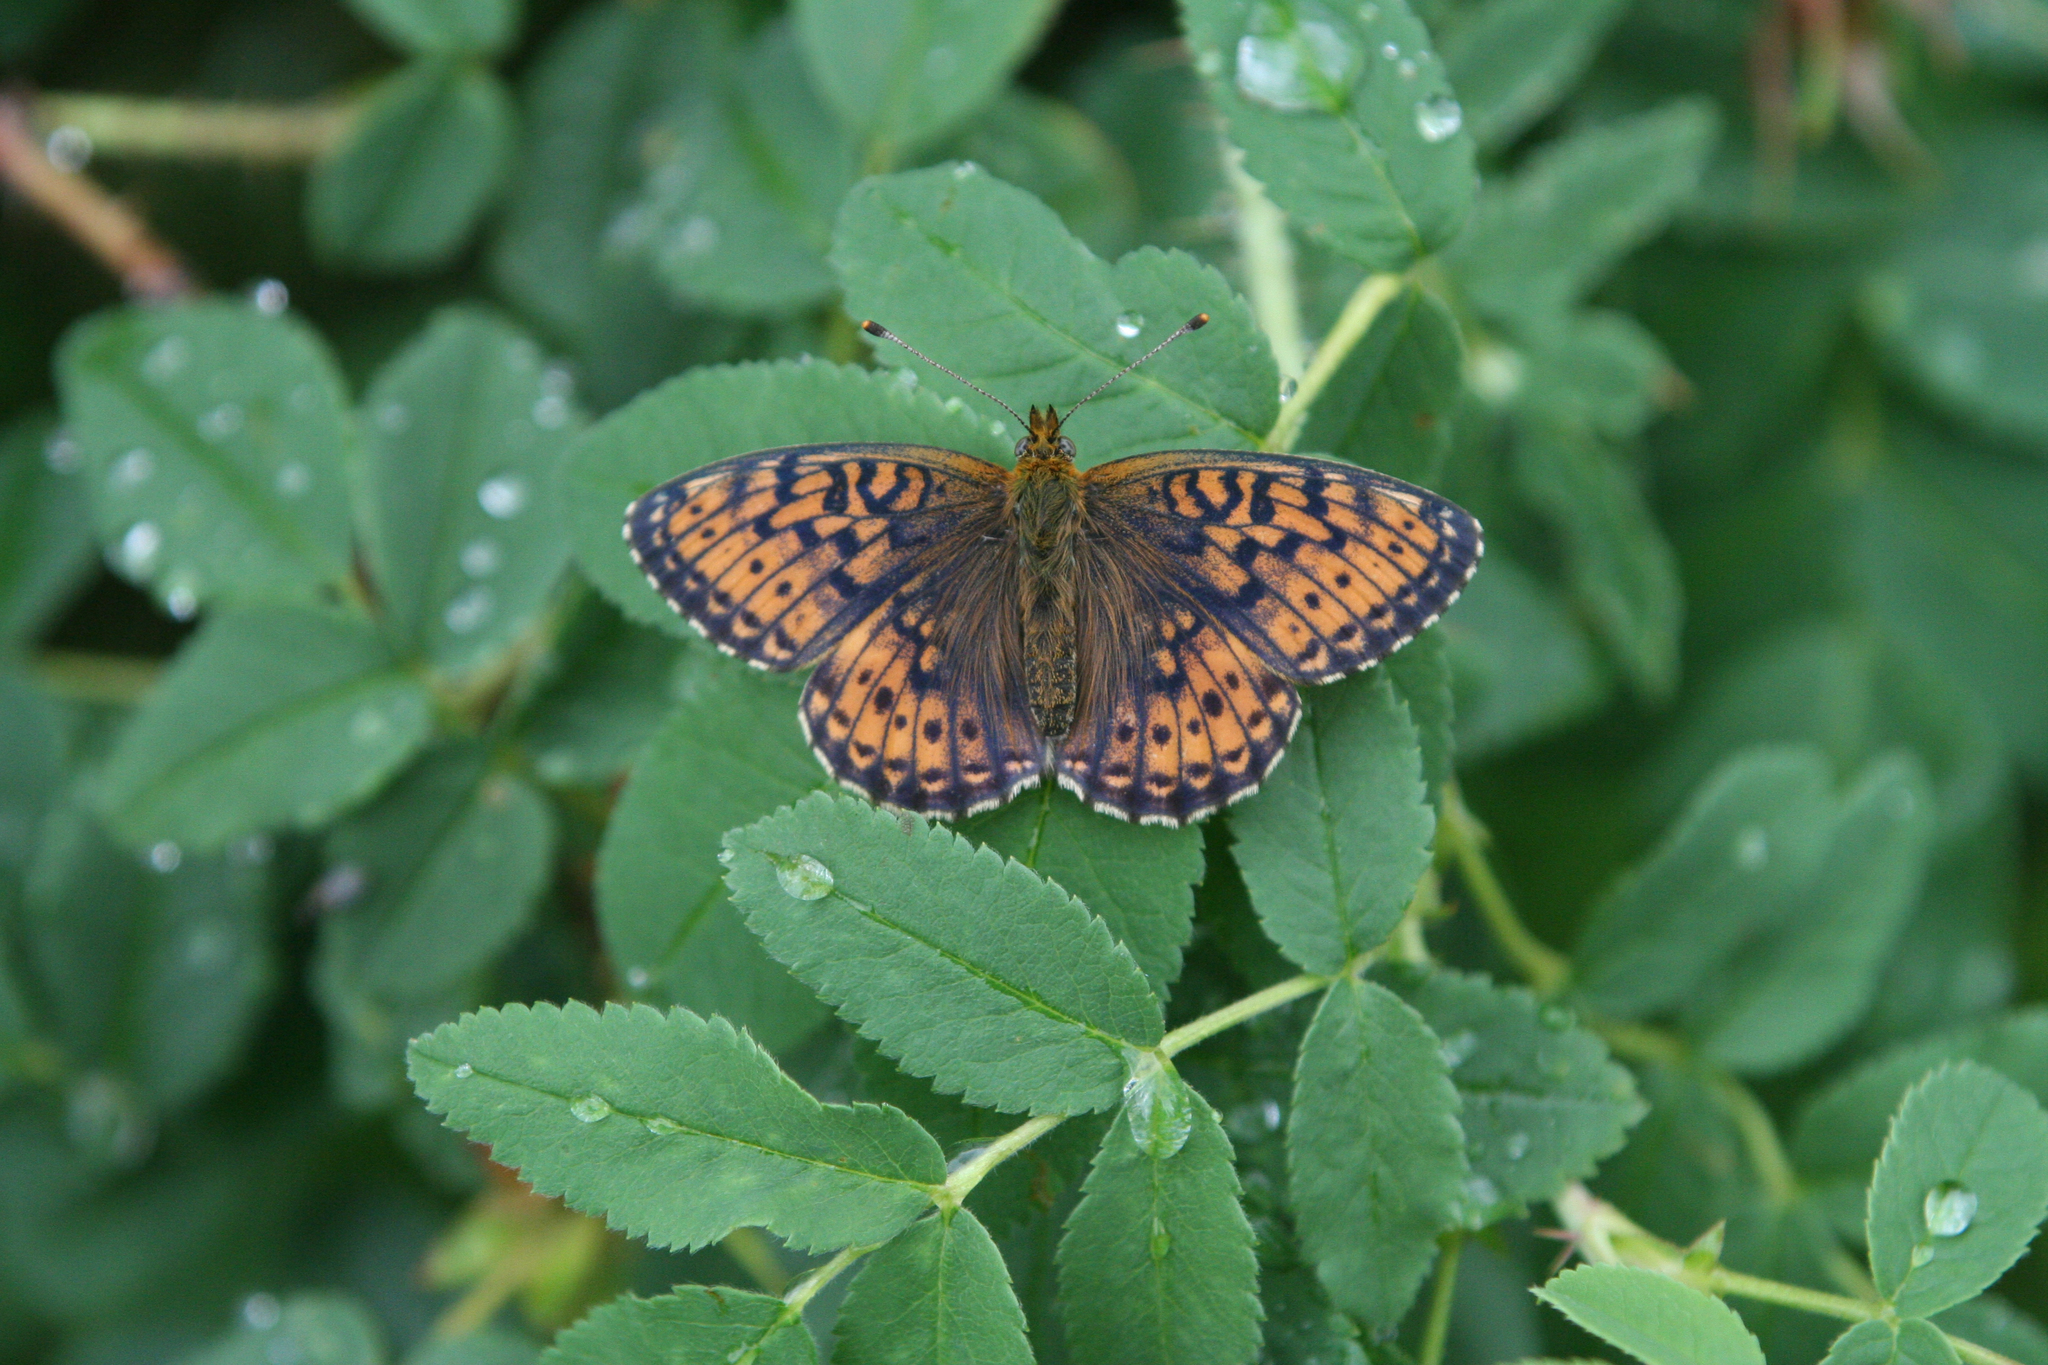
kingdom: Animalia
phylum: Arthropoda
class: Insecta
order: Lepidoptera
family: Nymphalidae
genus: Brenthis
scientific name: Brenthis ino
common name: Lesser marbled fritillary
